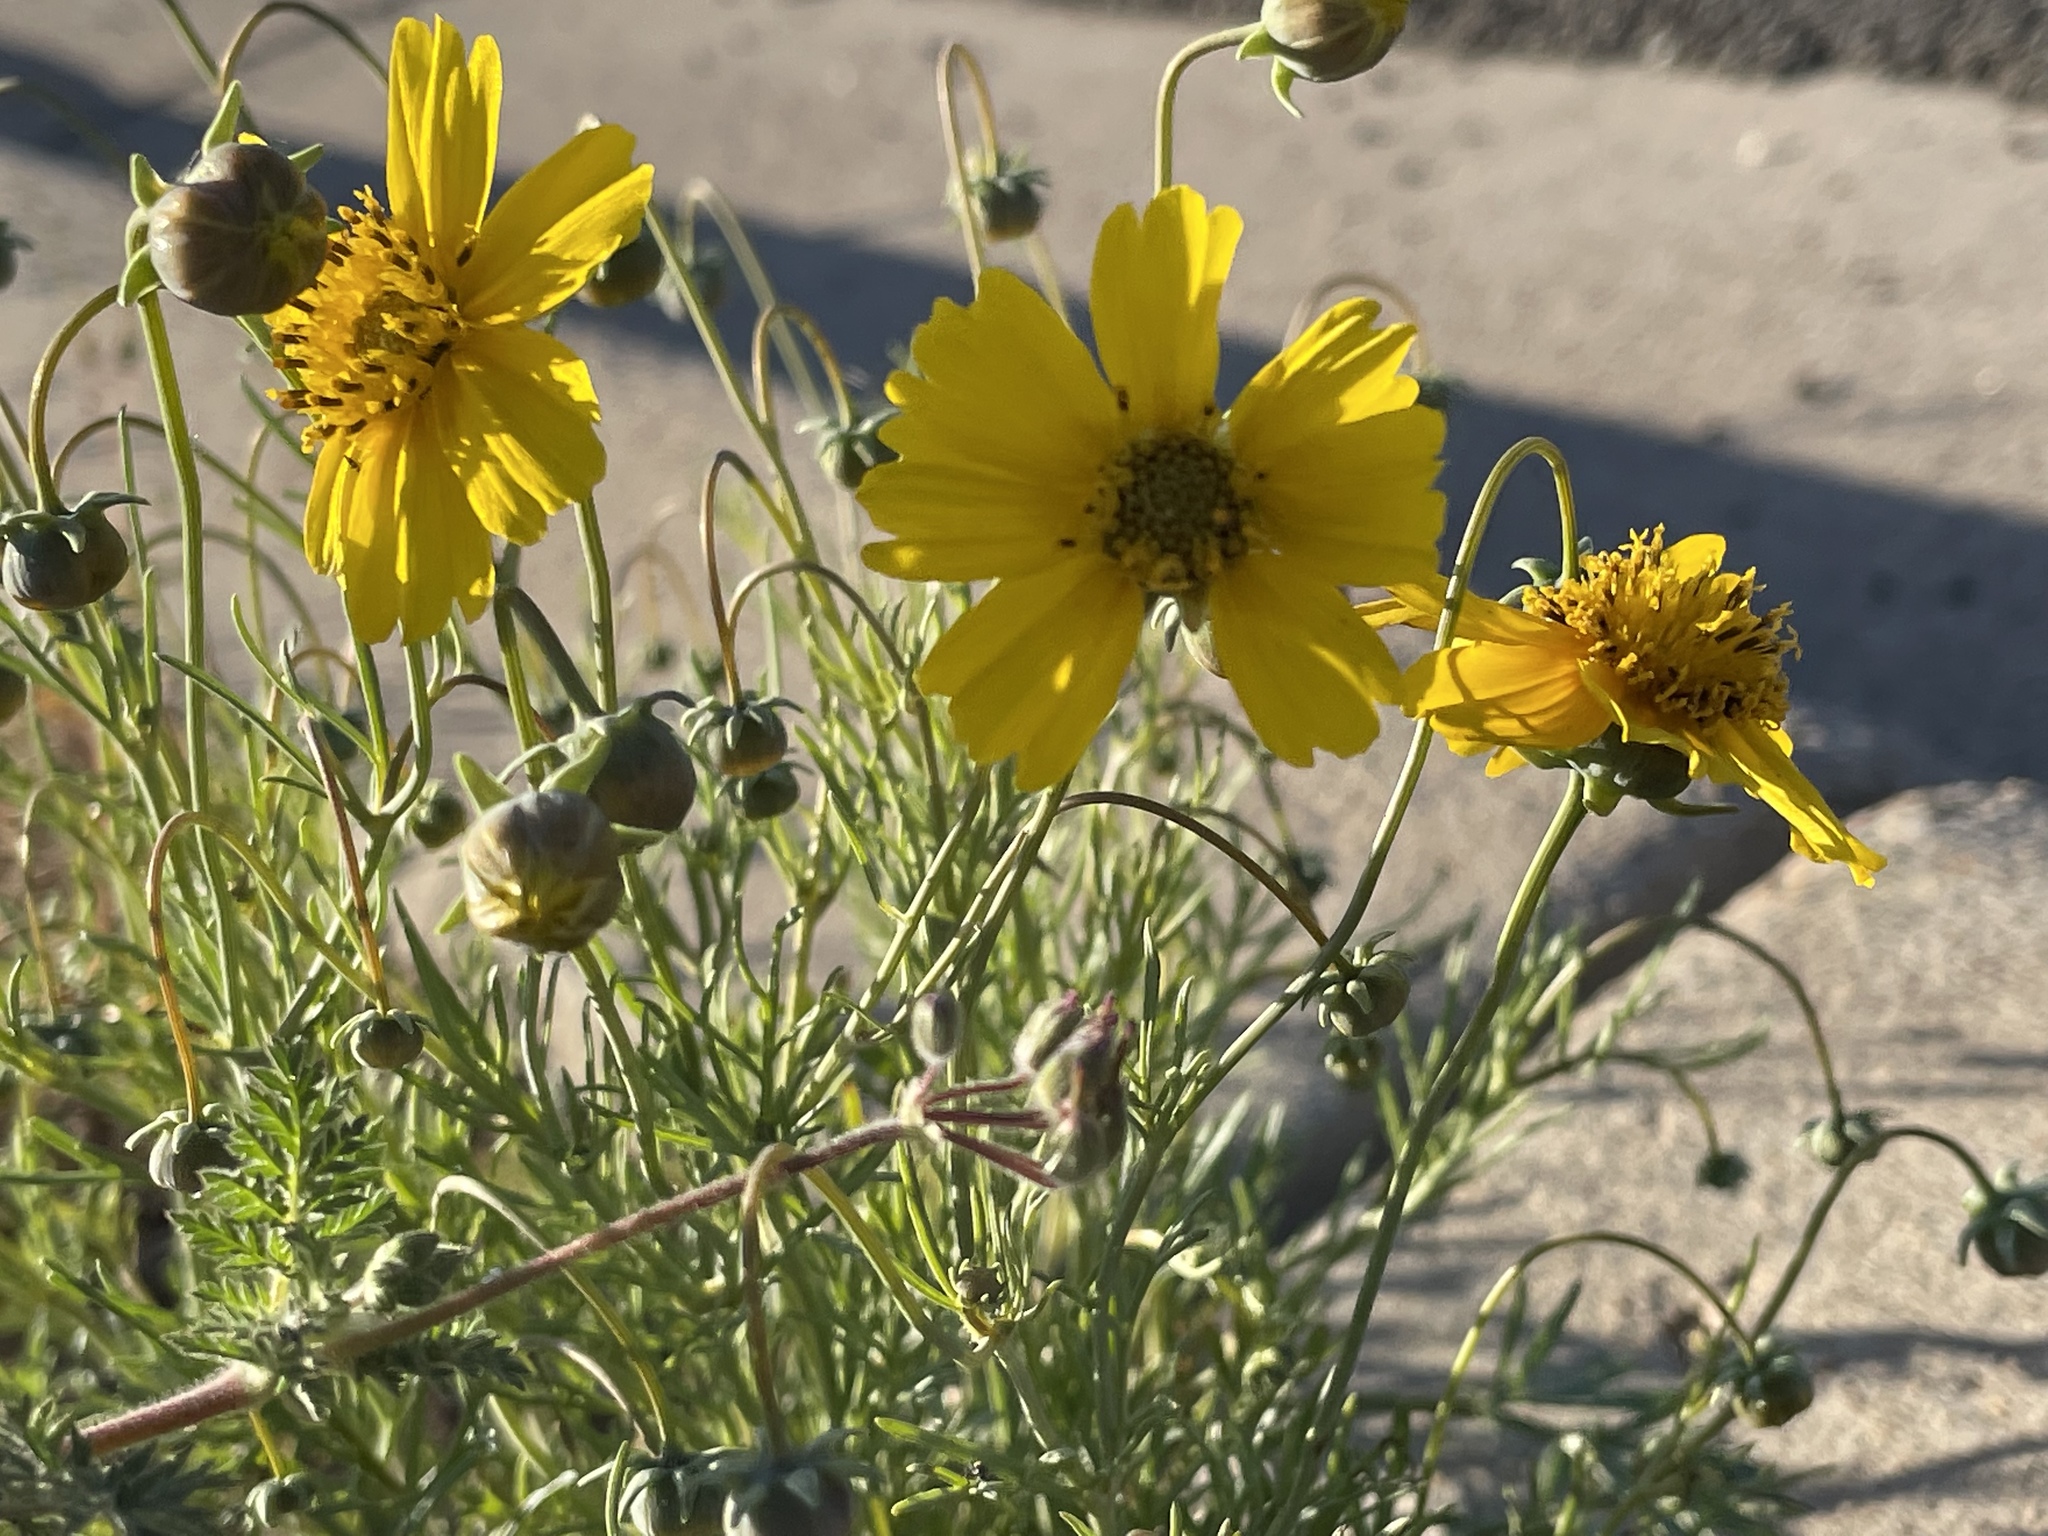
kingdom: Plantae
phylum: Tracheophyta
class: Magnoliopsida
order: Asterales
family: Asteraceae
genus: Thelesperma
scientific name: Thelesperma filifolium
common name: Stiff greenthread
